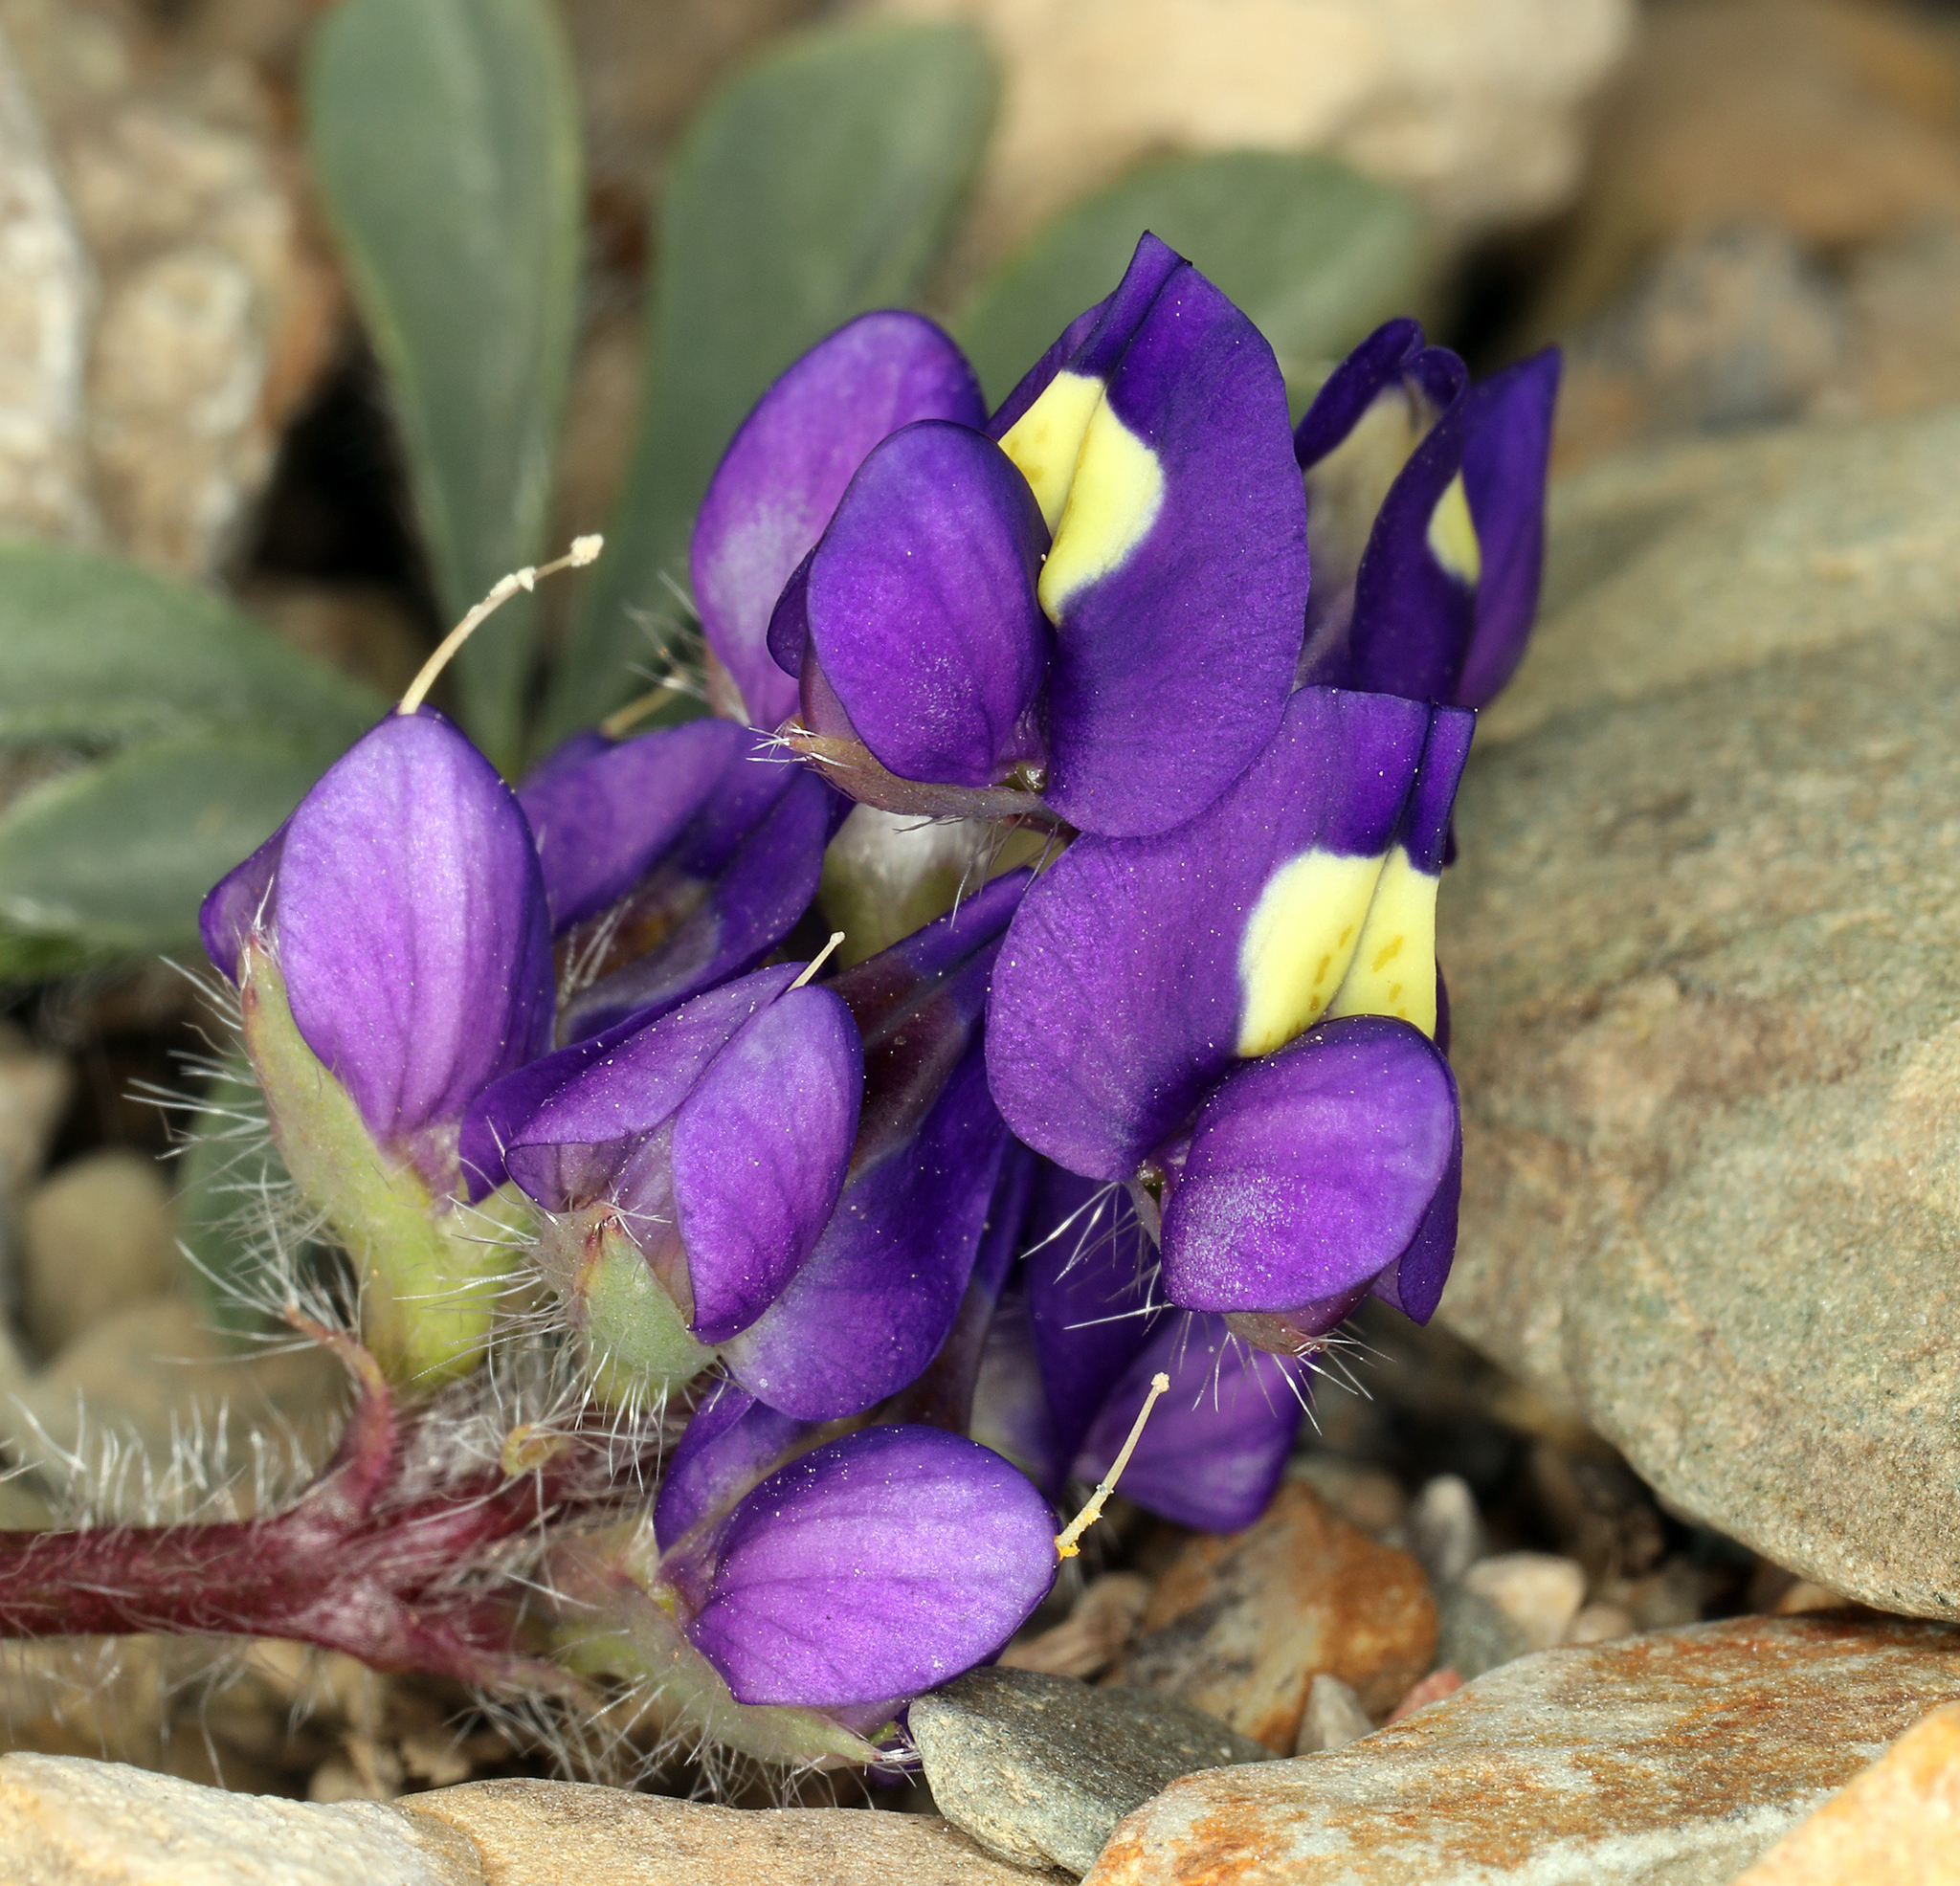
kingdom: Plantae
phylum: Tracheophyta
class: Magnoliopsida
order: Fabales
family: Fabaceae
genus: Lupinus
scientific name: Lupinus flavoculatus
